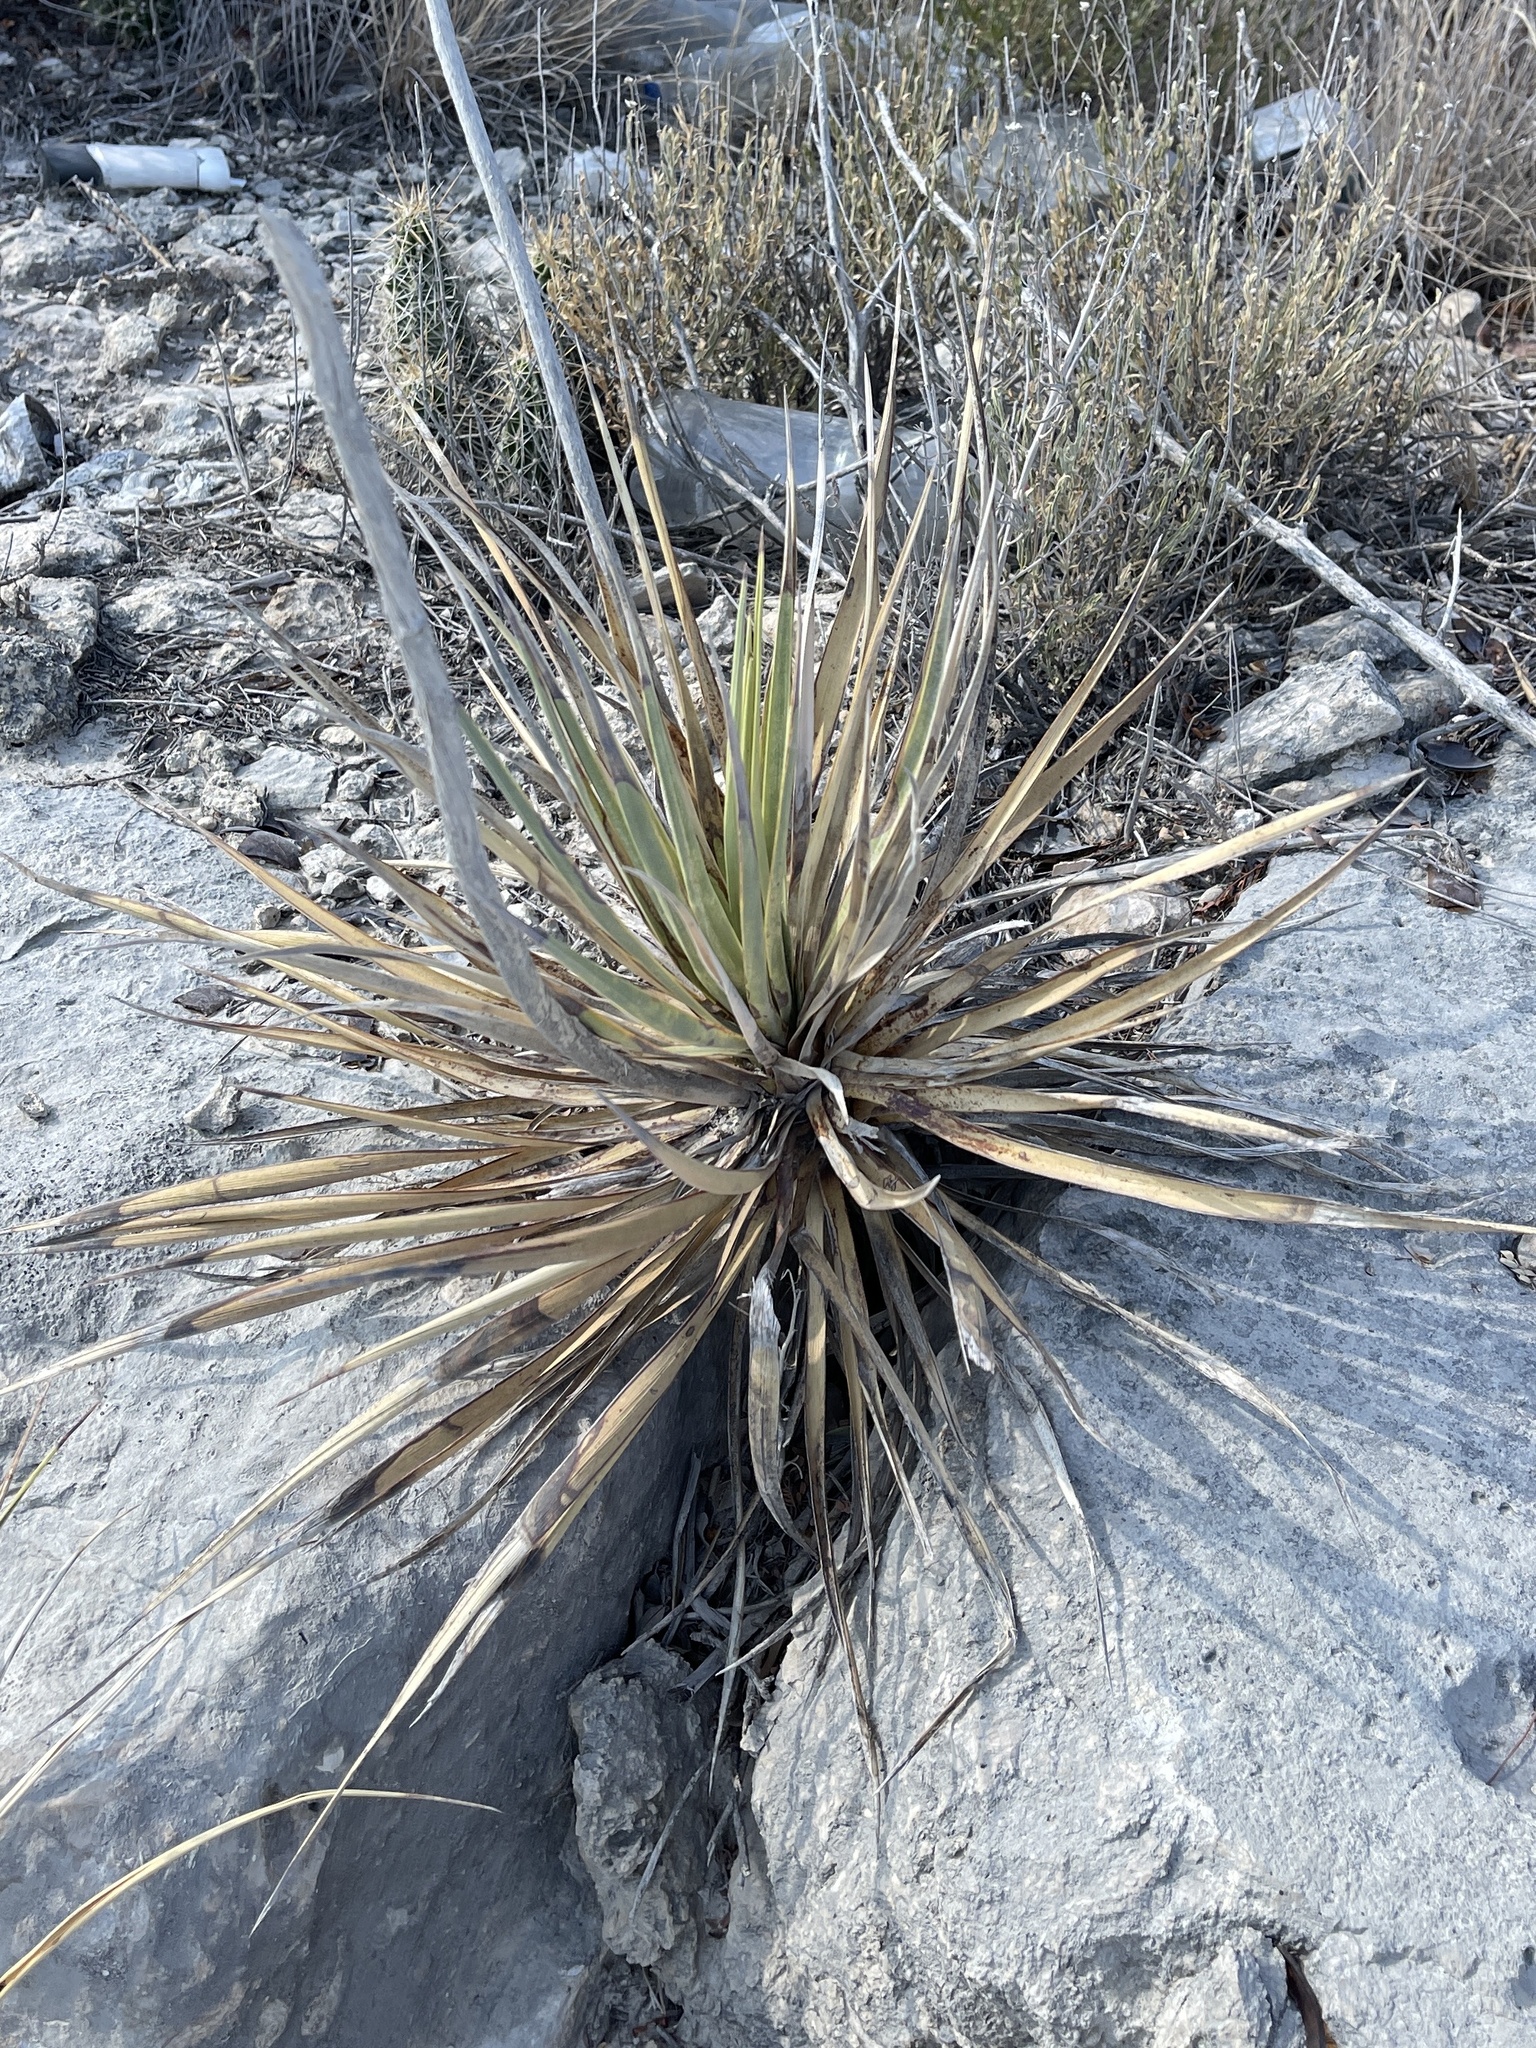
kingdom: Plantae
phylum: Tracheophyta
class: Liliopsida
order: Asparagales
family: Asparagaceae
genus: Yucca
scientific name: Yucca reverchonii
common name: San angelo yucca
